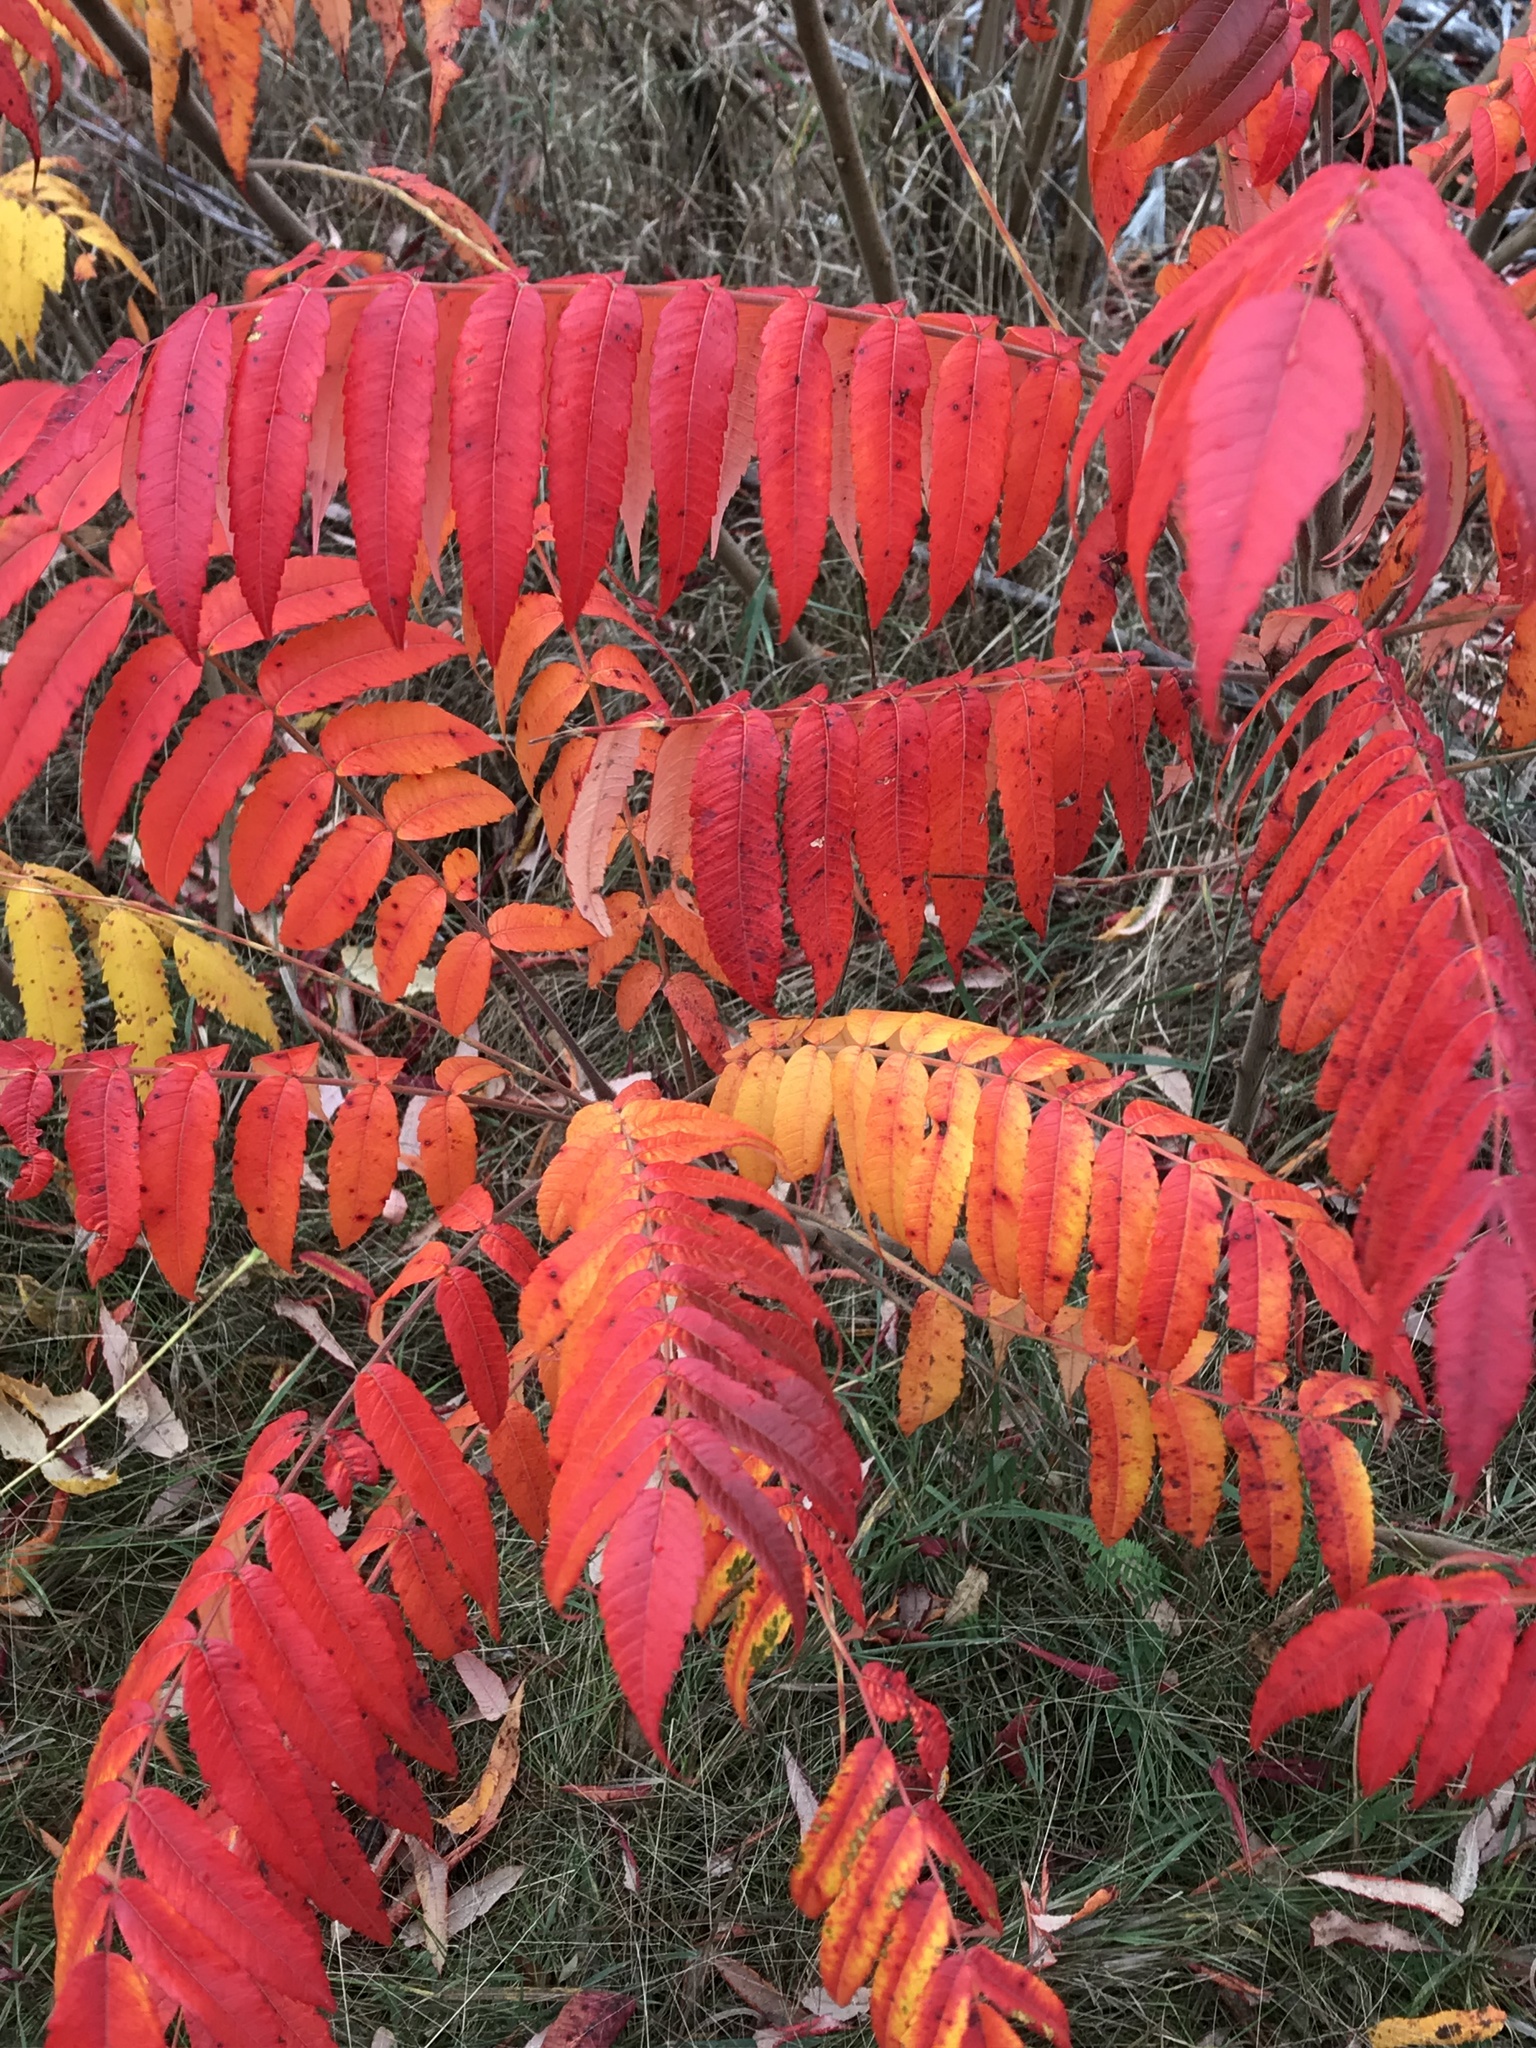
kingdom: Plantae
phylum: Tracheophyta
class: Magnoliopsida
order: Sapindales
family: Anacardiaceae
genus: Rhus
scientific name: Rhus typhina
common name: Staghorn sumac
